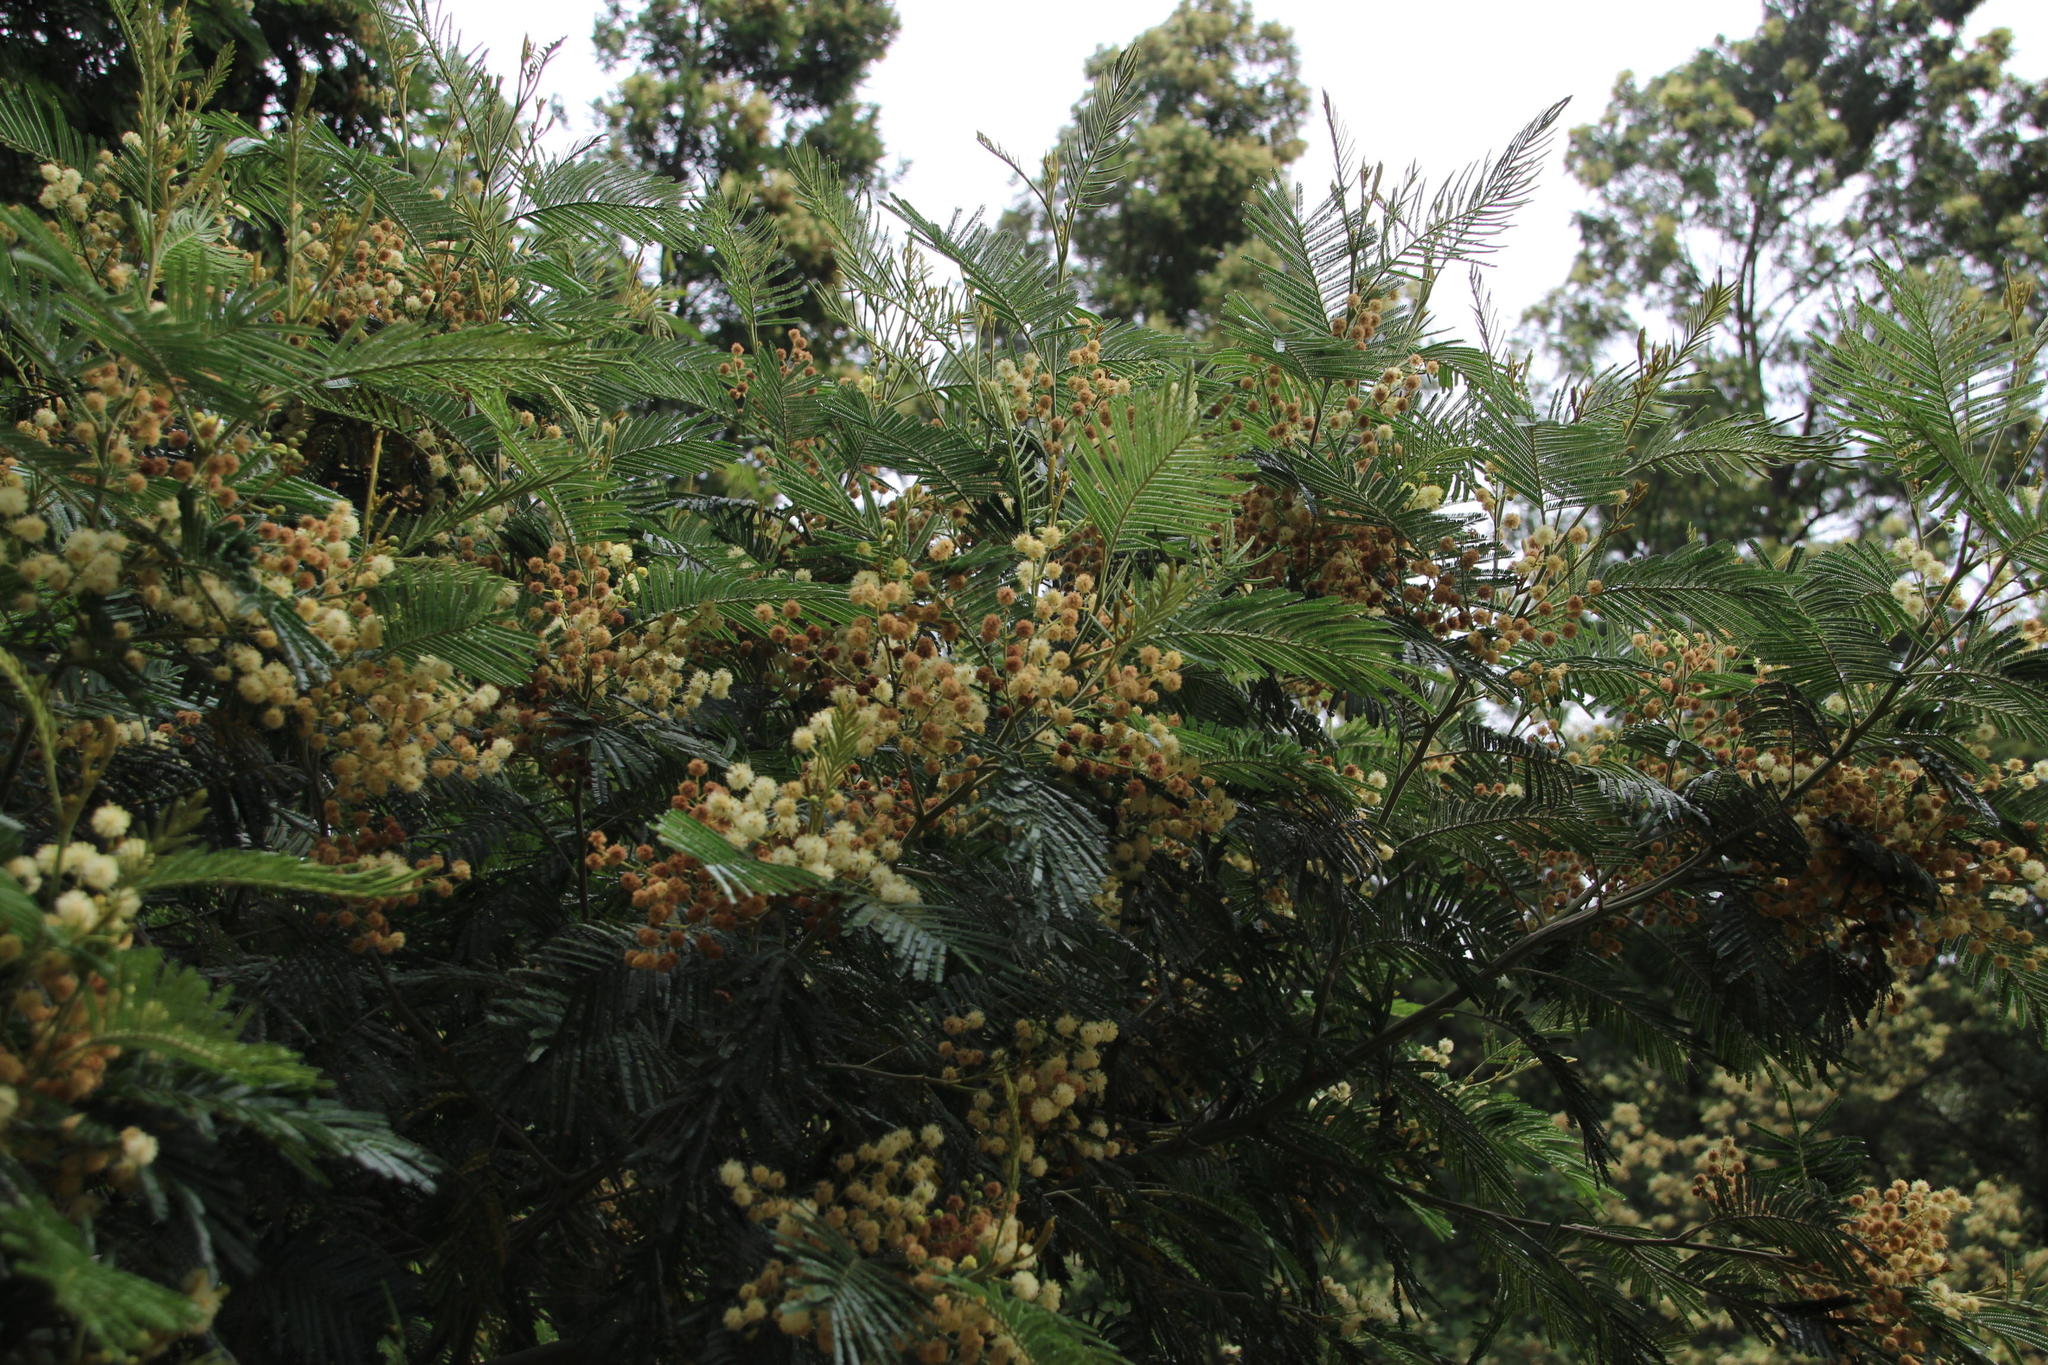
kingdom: Plantae
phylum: Tracheophyta
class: Magnoliopsida
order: Fabales
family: Fabaceae
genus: Acacia
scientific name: Acacia mearnsii
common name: Black wattle
